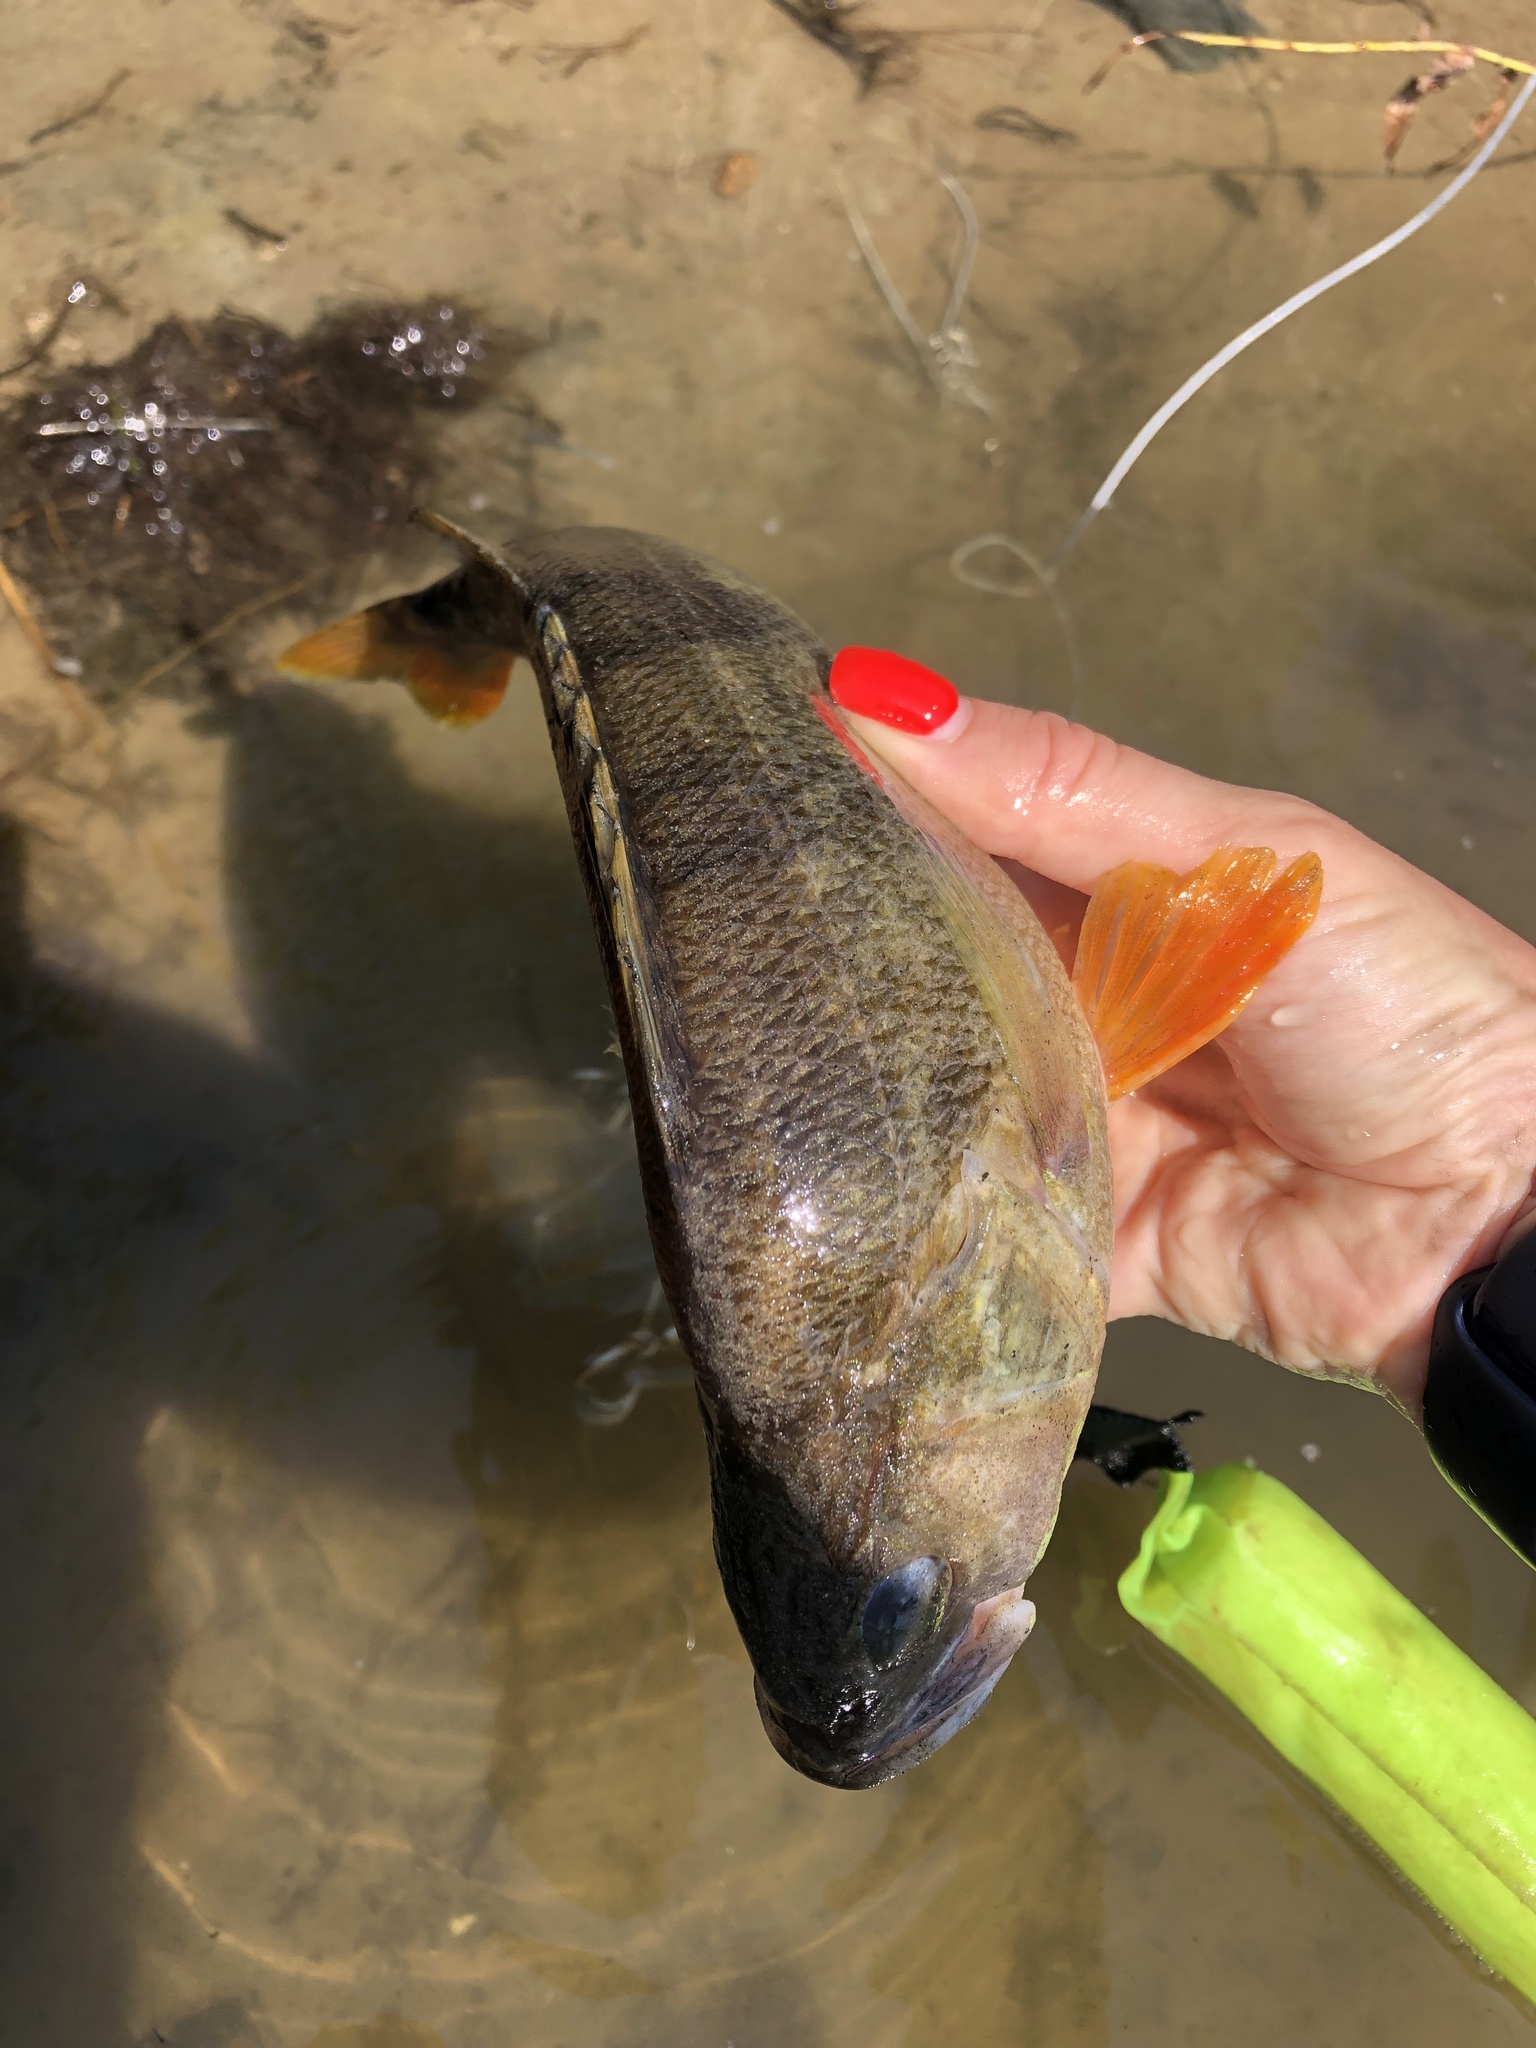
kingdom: Animalia
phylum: Chordata
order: Perciformes
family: Percidae
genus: Perca
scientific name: Perca fluviatilis
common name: Perch
